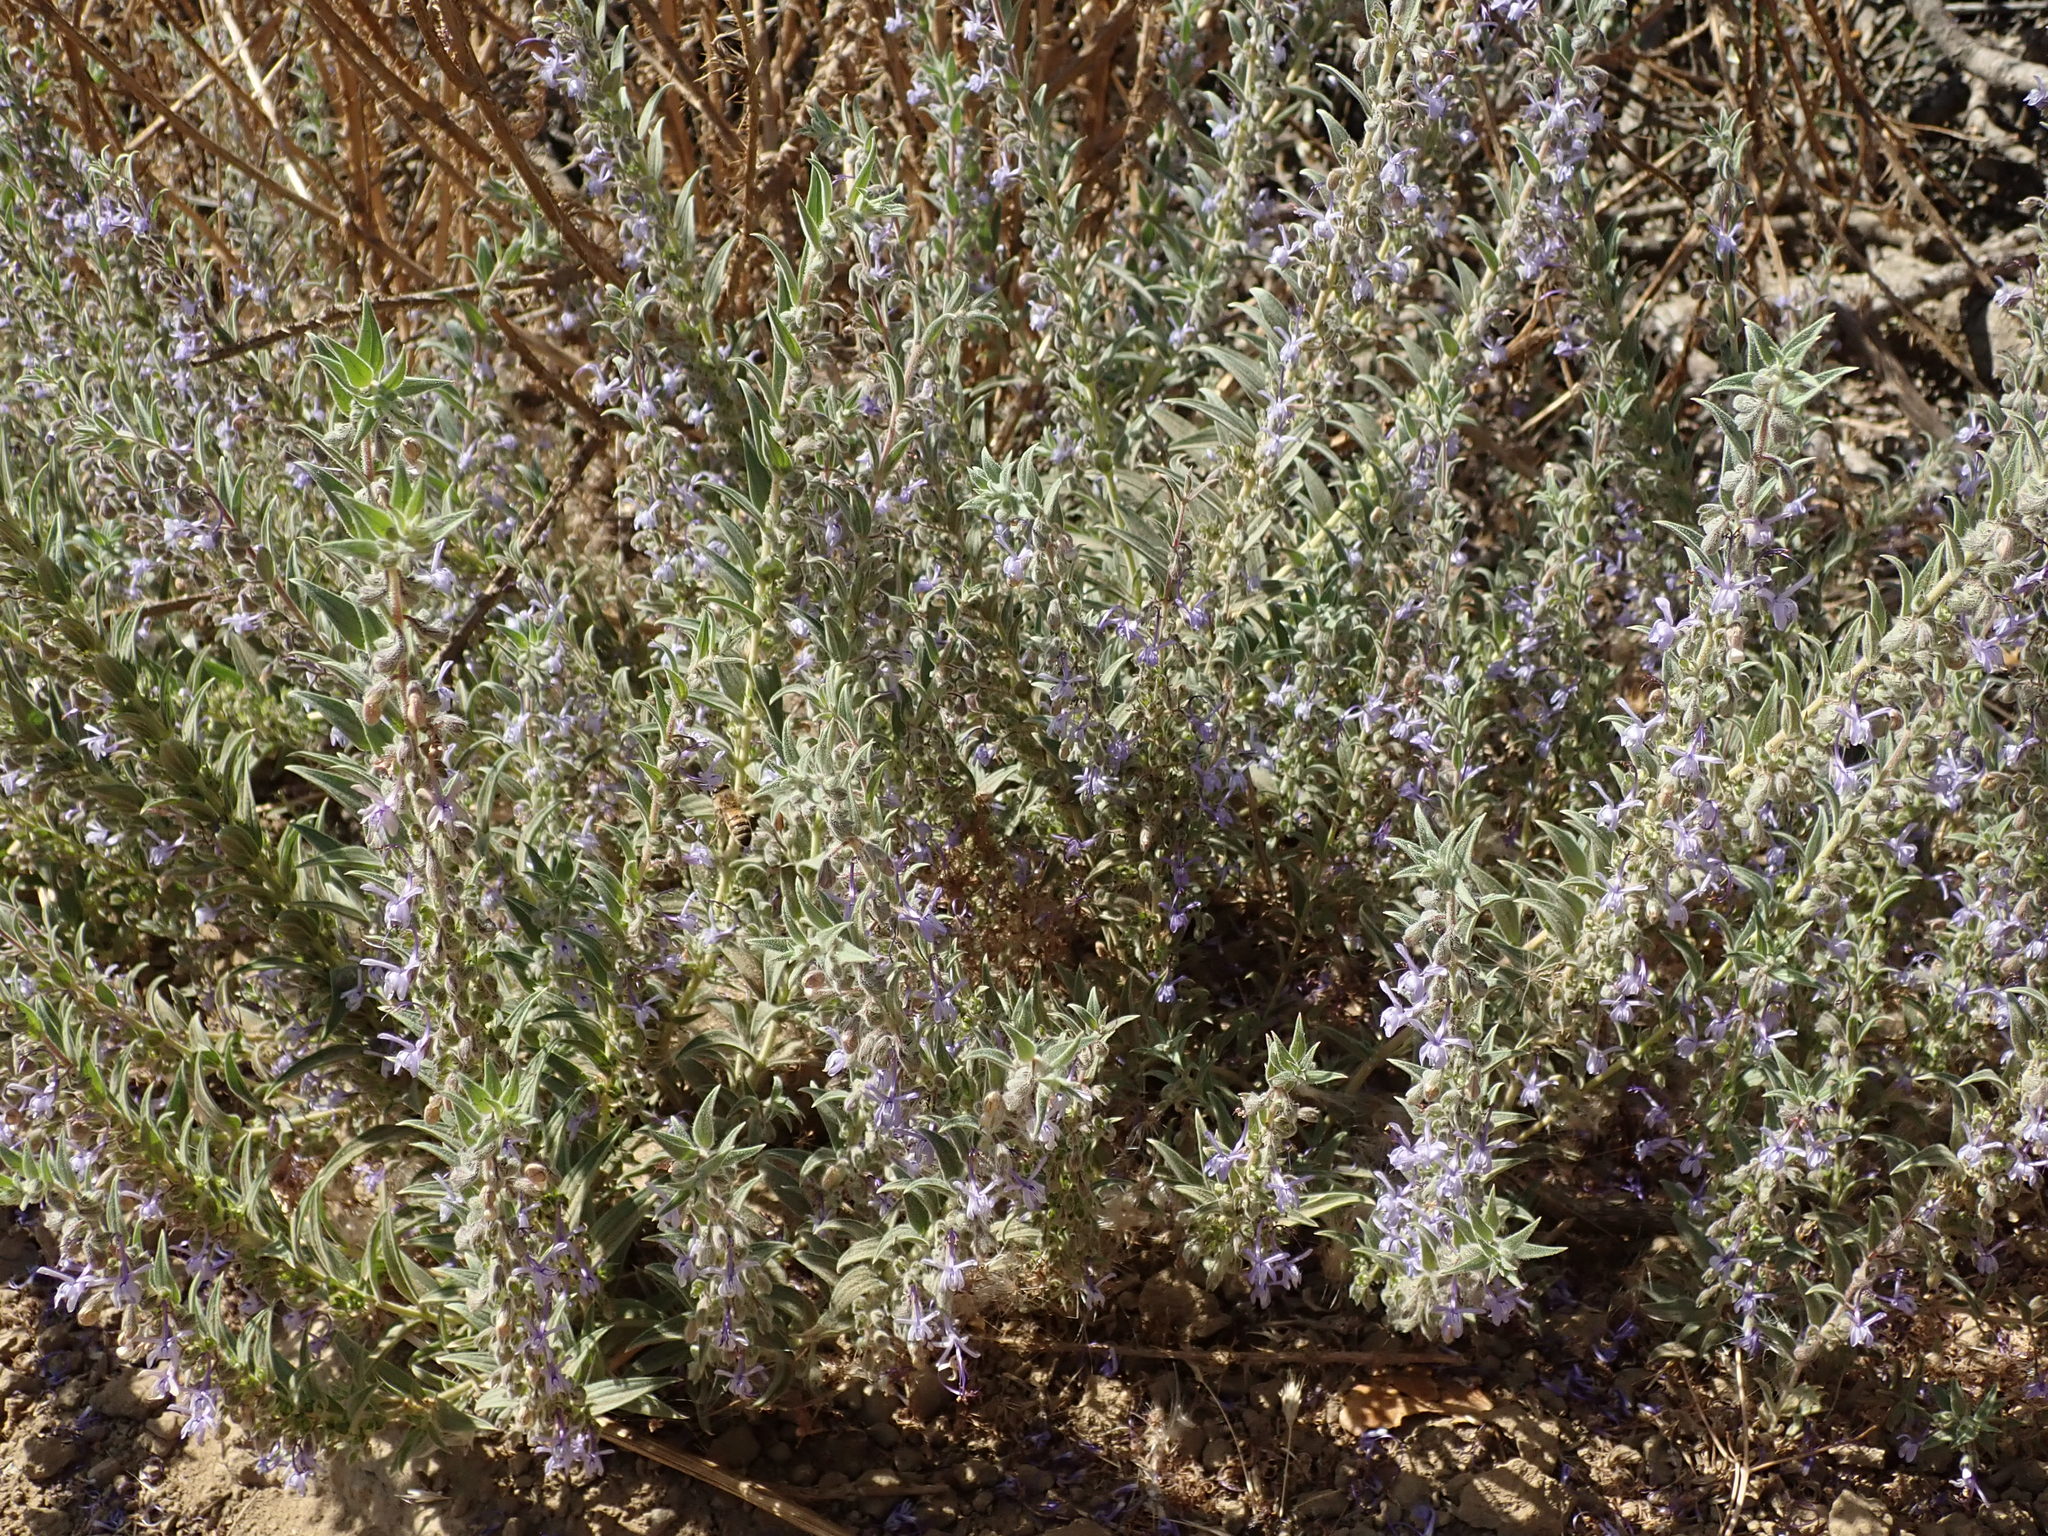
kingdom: Plantae
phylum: Tracheophyta
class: Magnoliopsida
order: Lamiales
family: Lamiaceae
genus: Trichostema
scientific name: Trichostema lanceolatum
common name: Vinegar-weed
